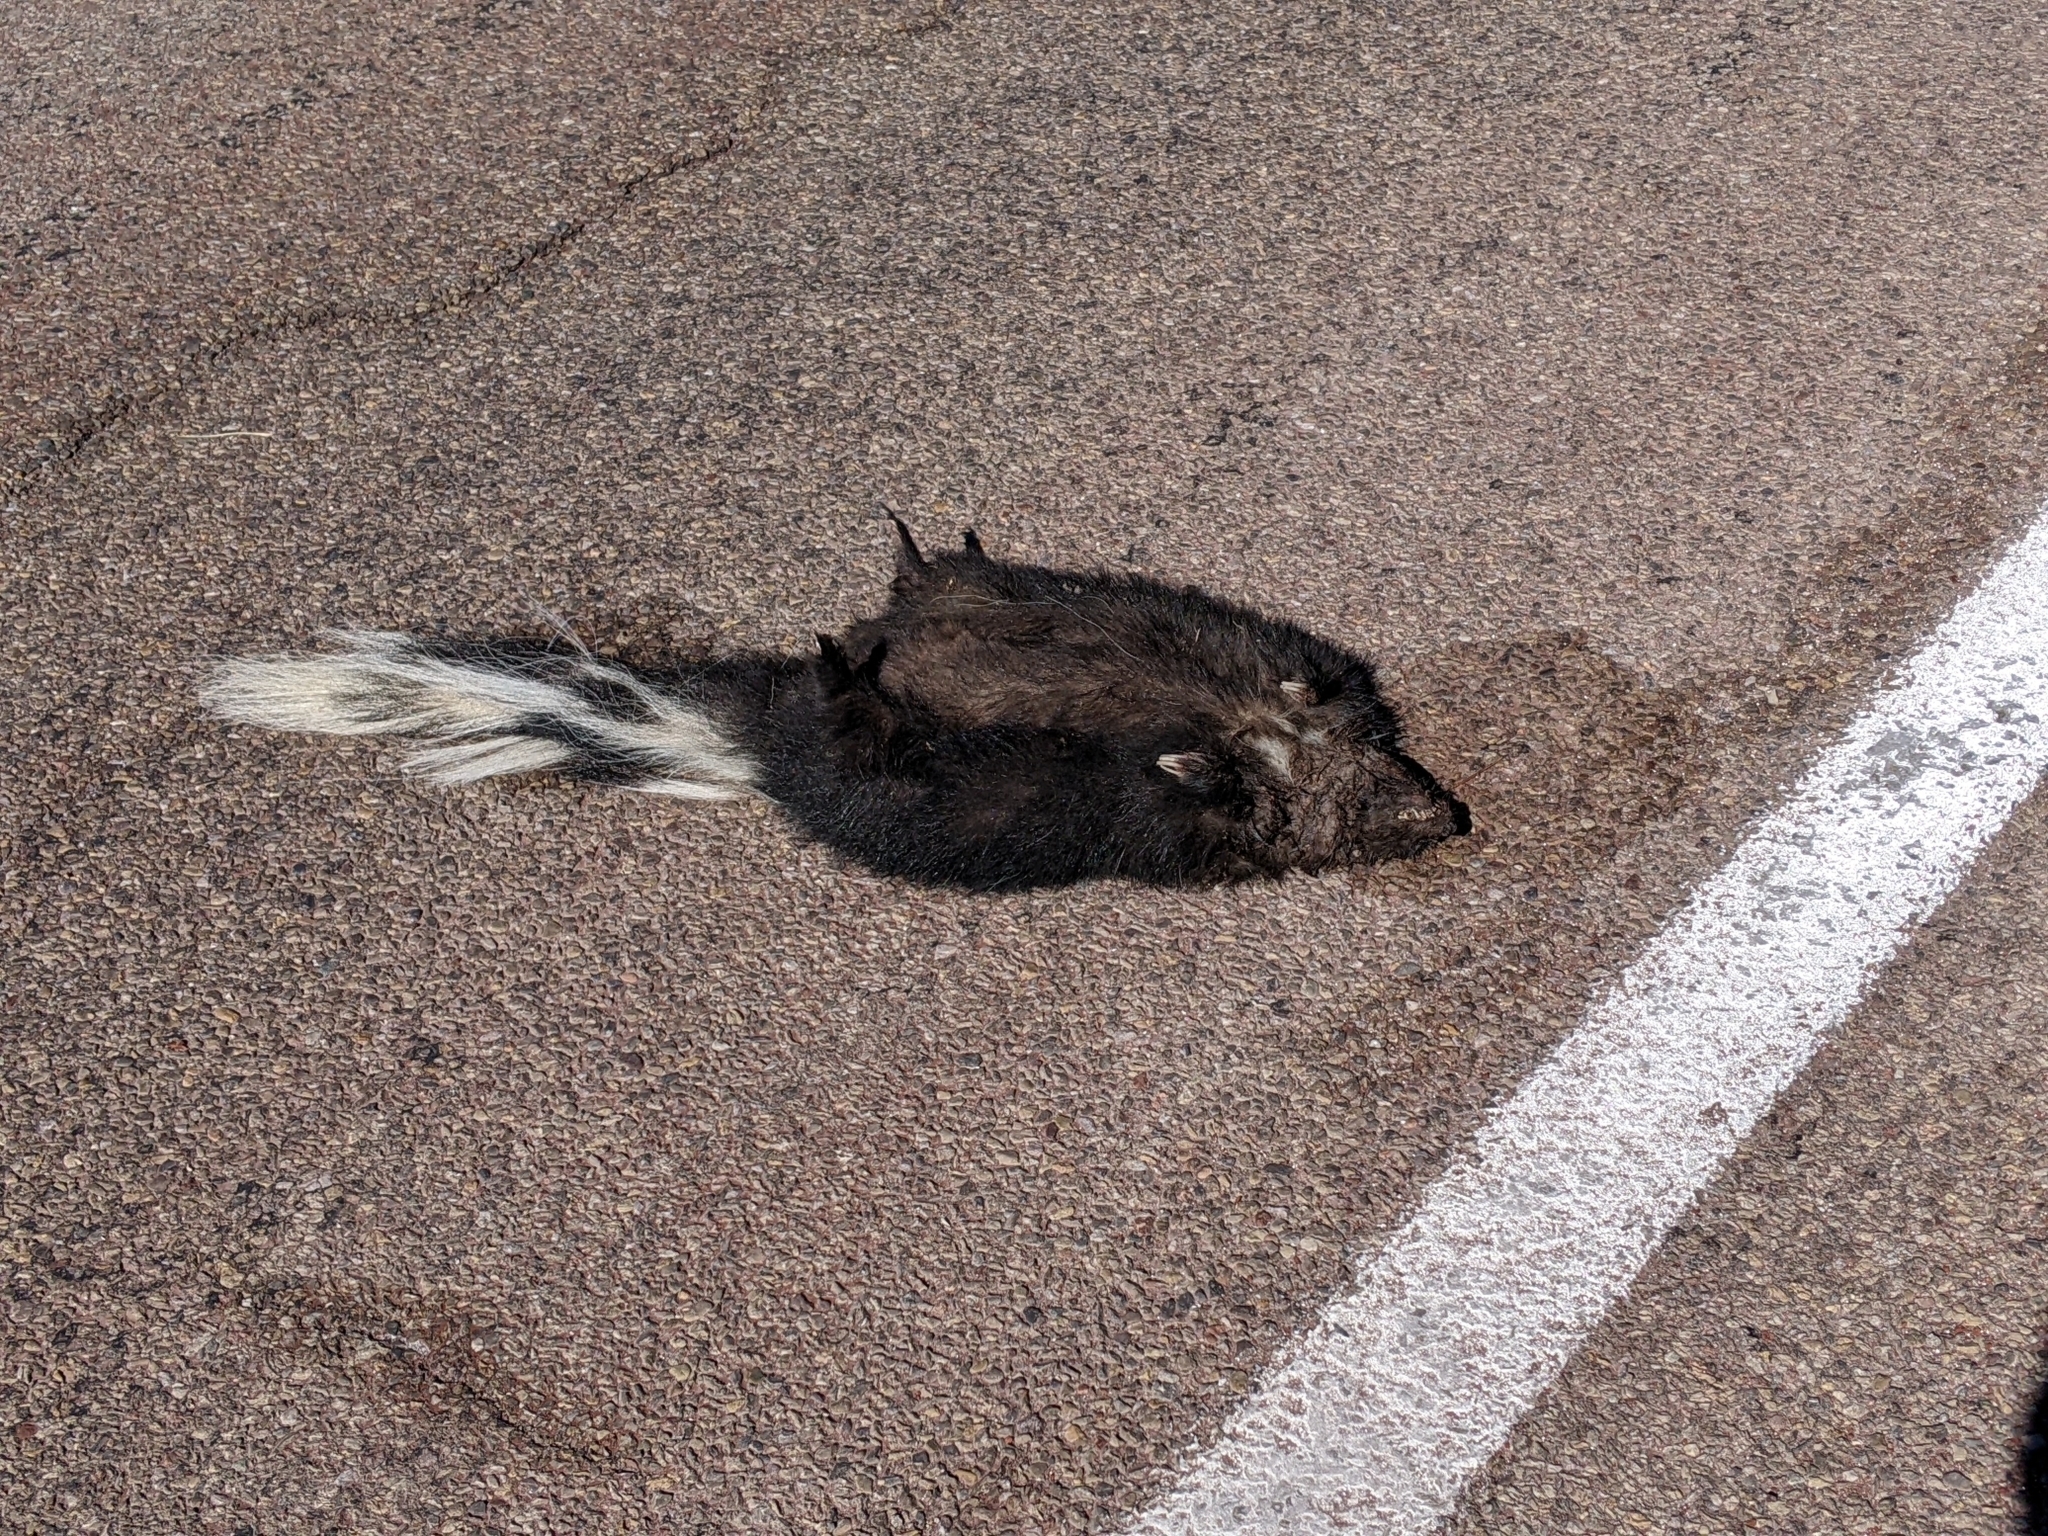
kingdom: Animalia
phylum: Chordata
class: Mammalia
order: Carnivora
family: Mephitidae
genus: Mephitis
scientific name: Mephitis mephitis
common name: Striped skunk
